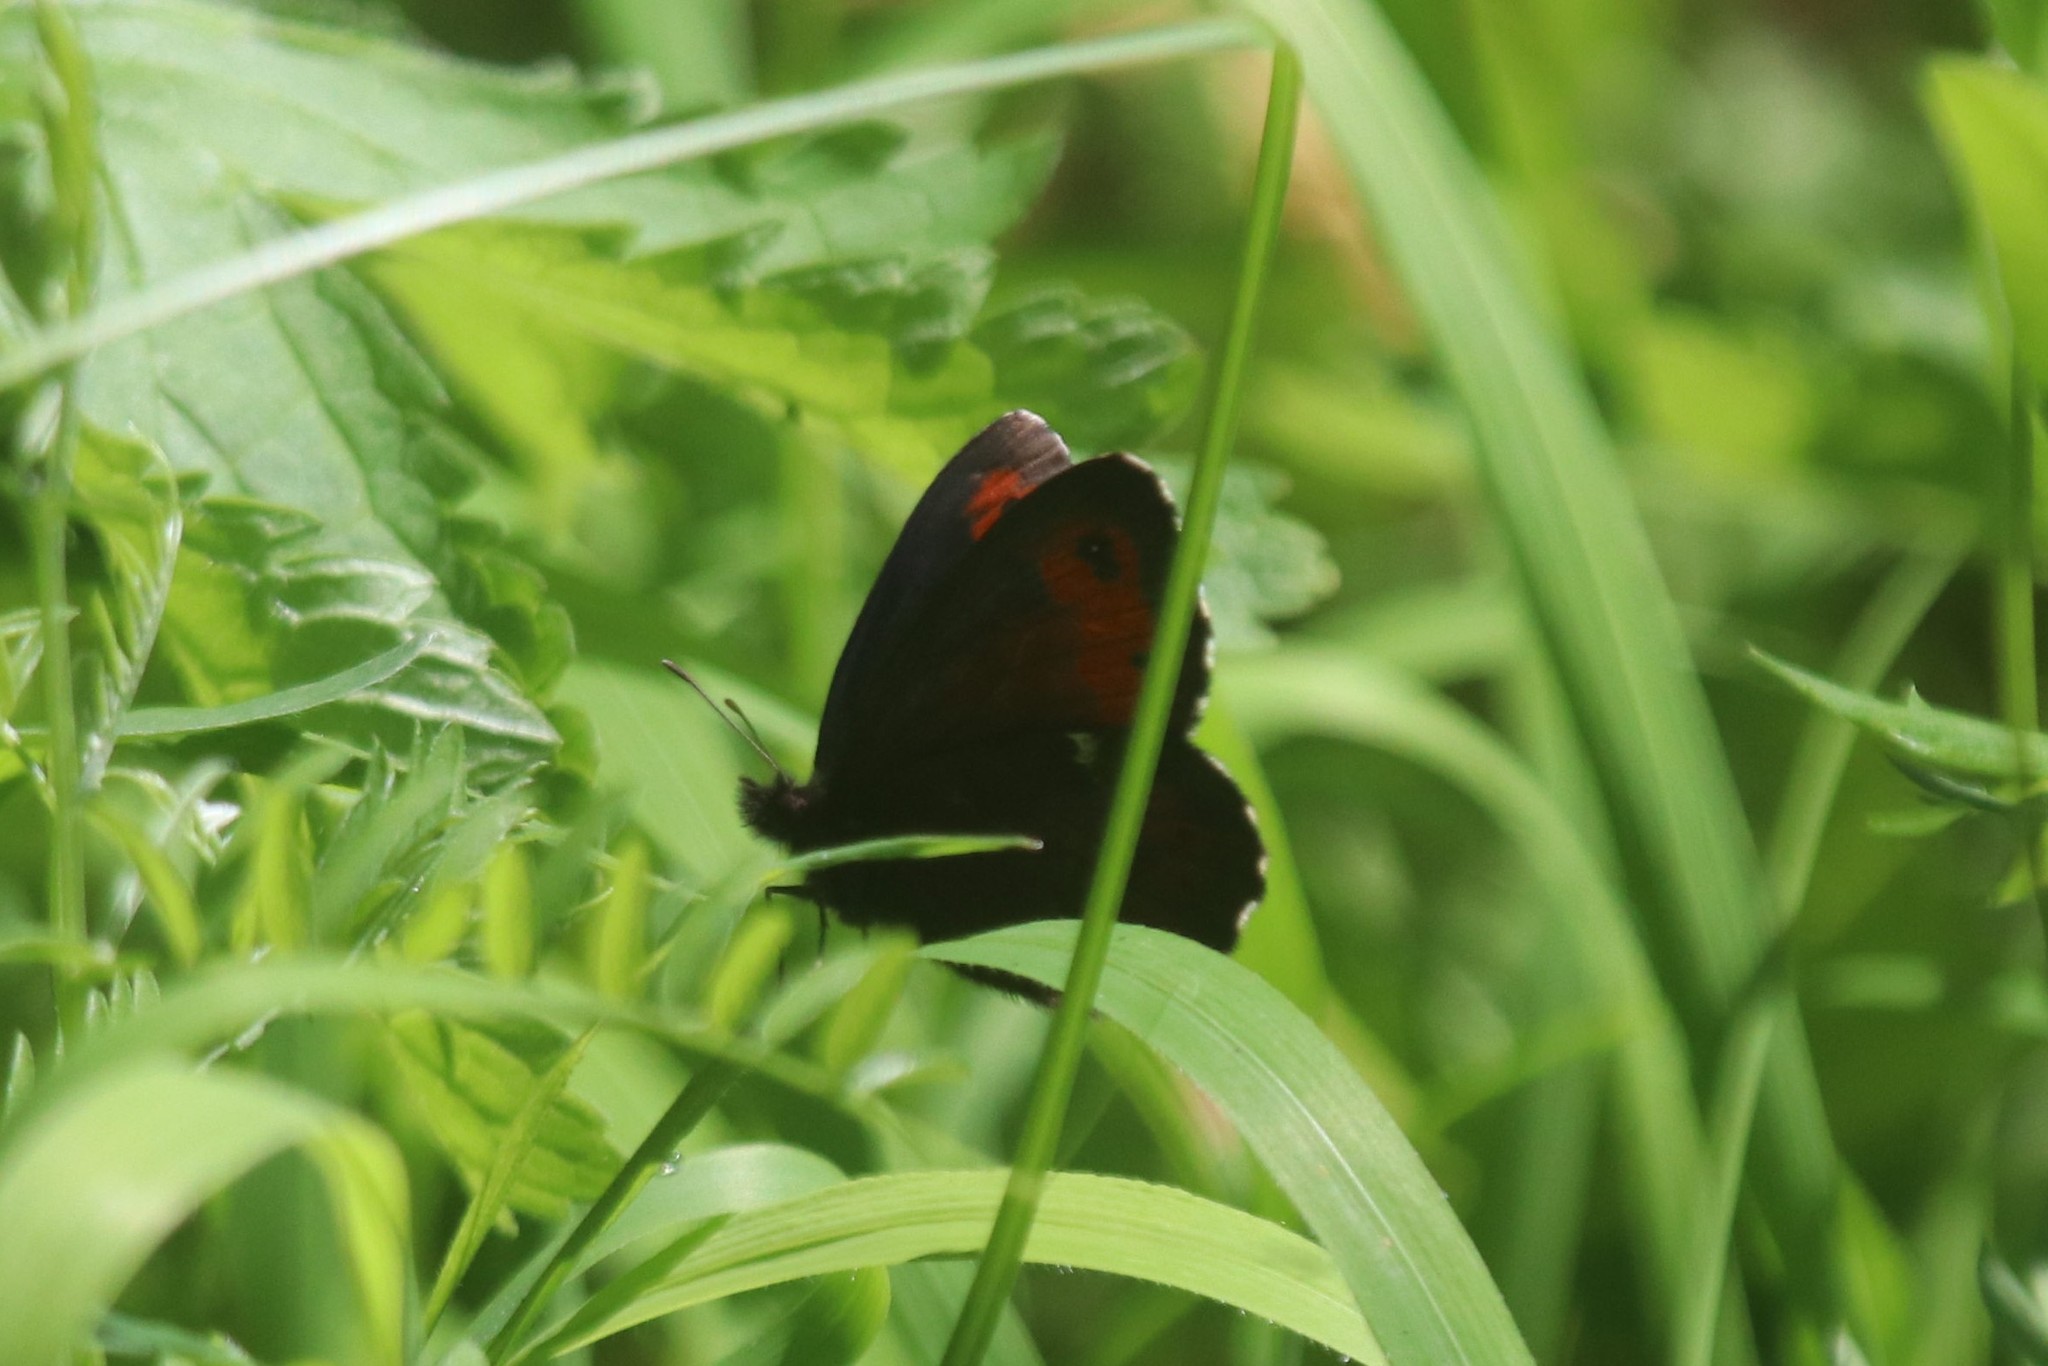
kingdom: Animalia
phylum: Arthropoda
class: Insecta
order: Lepidoptera
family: Nymphalidae
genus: Erebia
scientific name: Erebia ligea
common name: Arran brown
